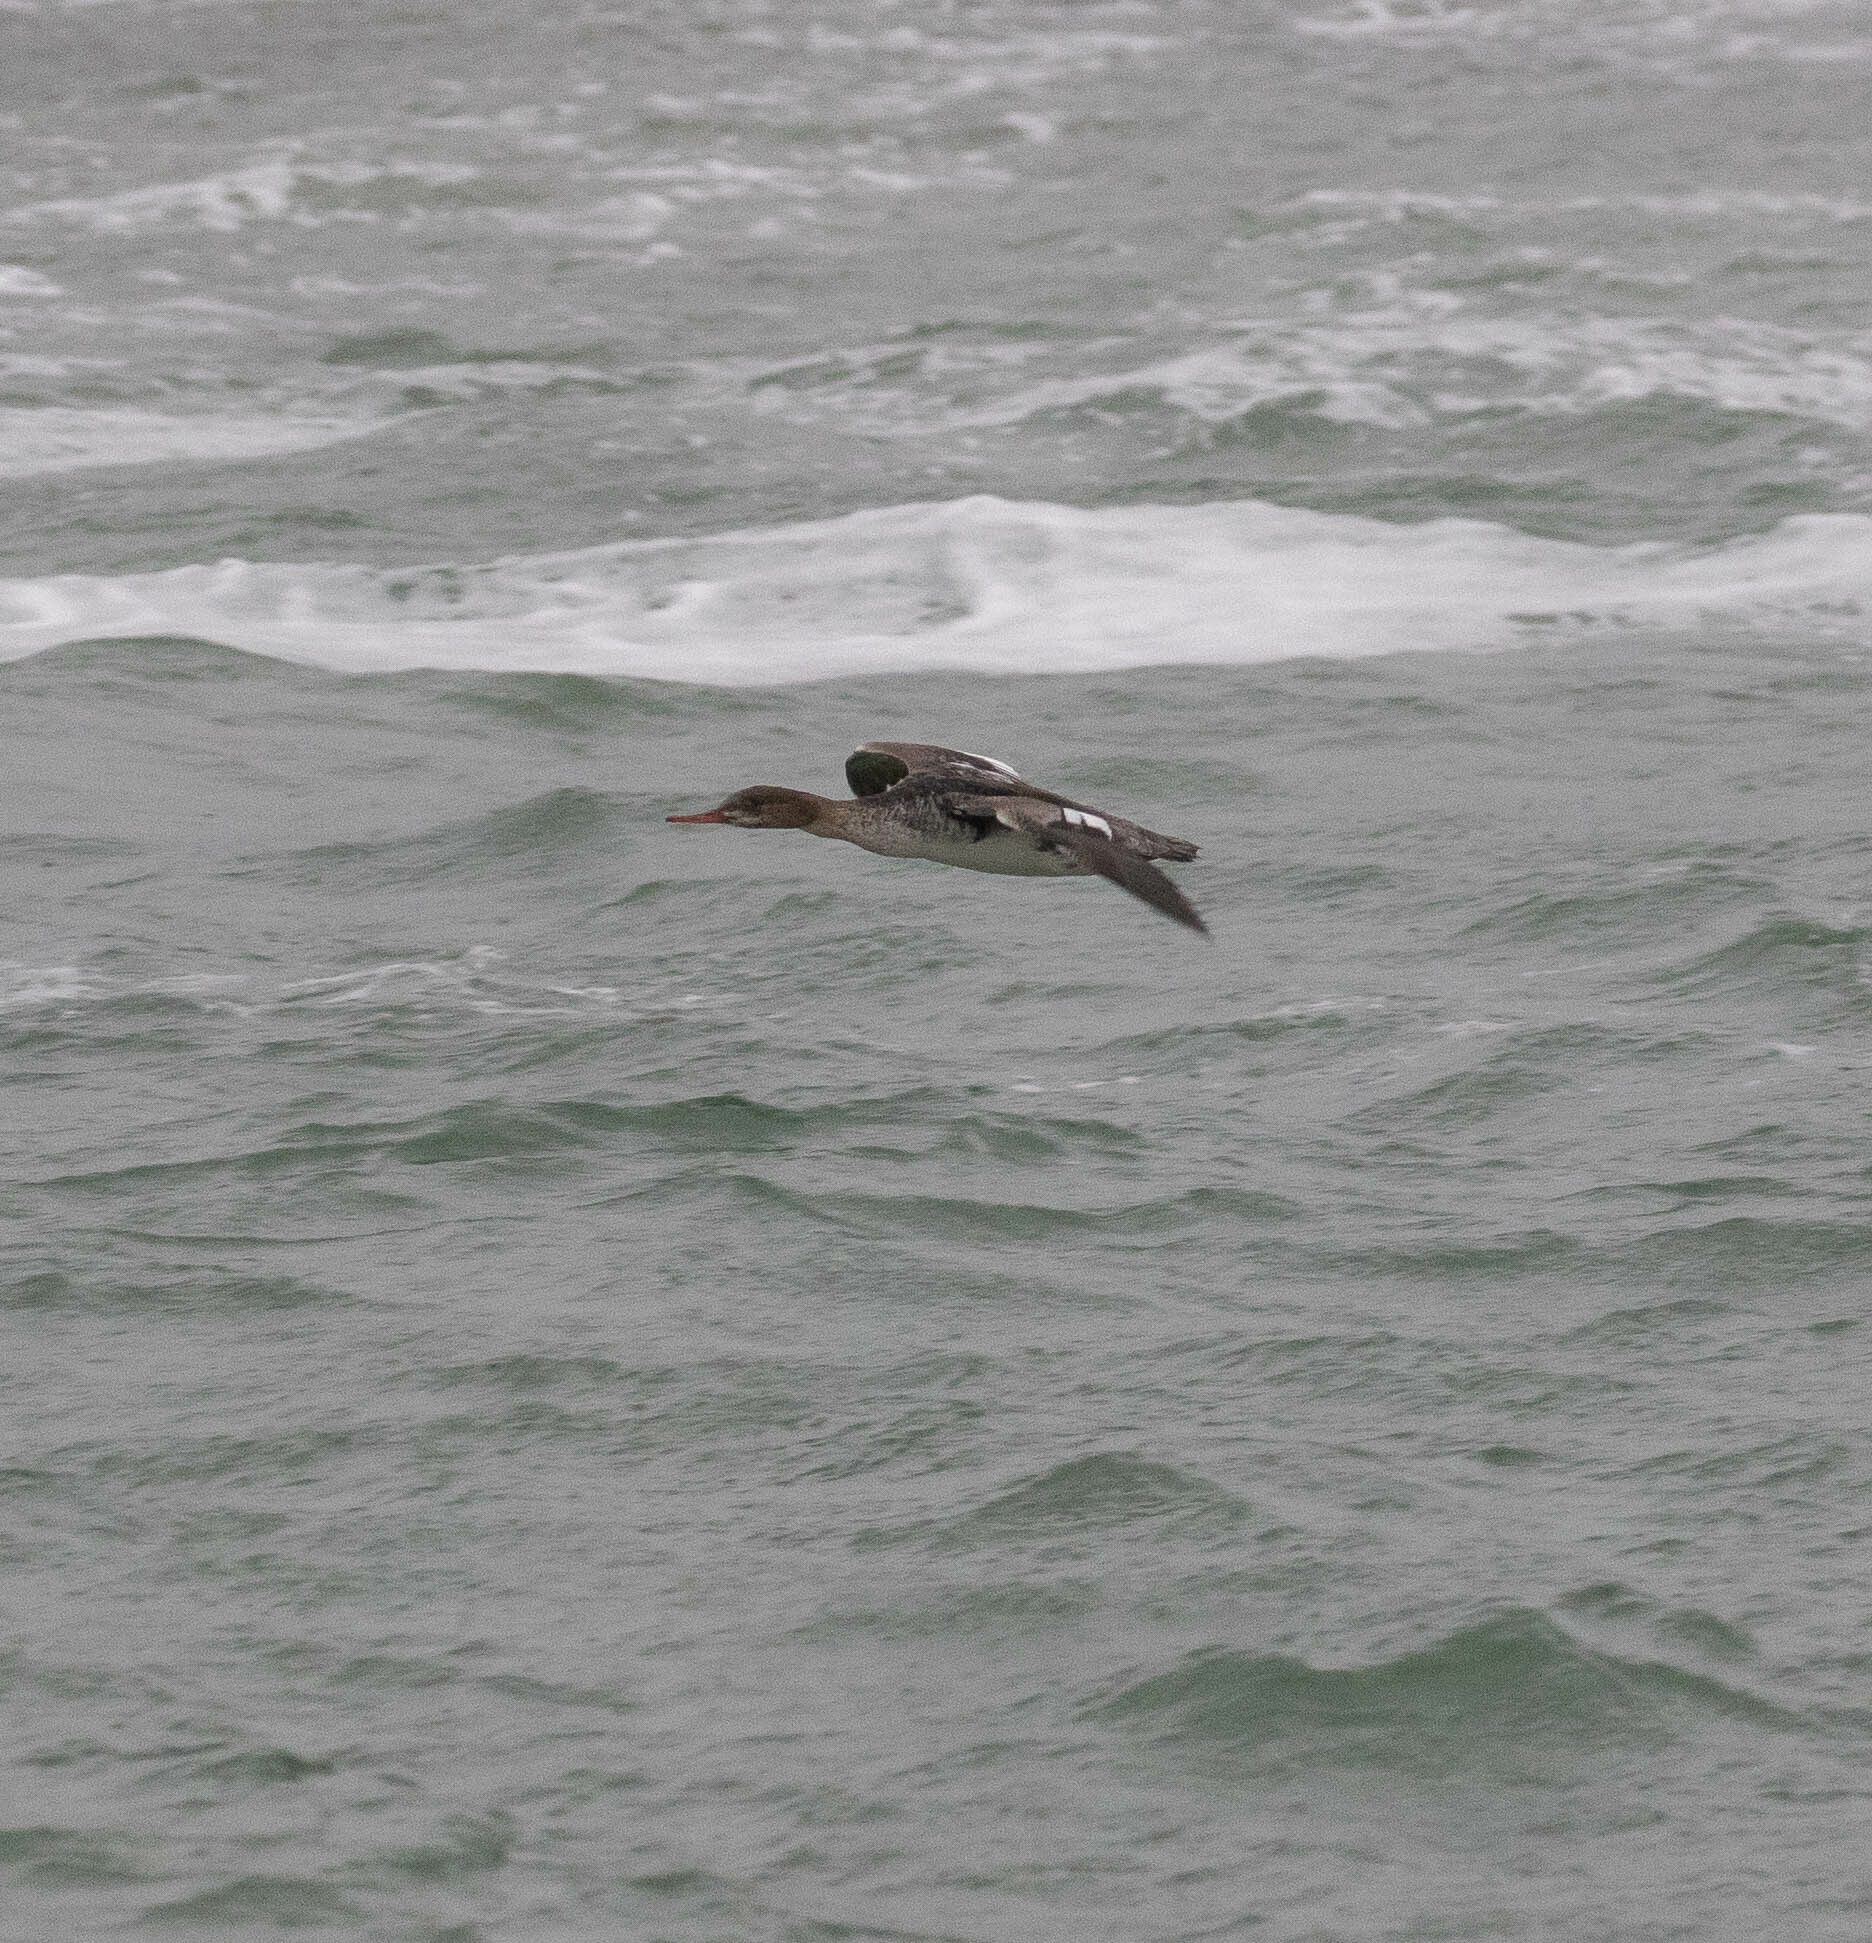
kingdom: Animalia
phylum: Chordata
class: Aves
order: Anseriformes
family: Anatidae
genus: Mergus
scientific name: Mergus serrator
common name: Red-breasted merganser
